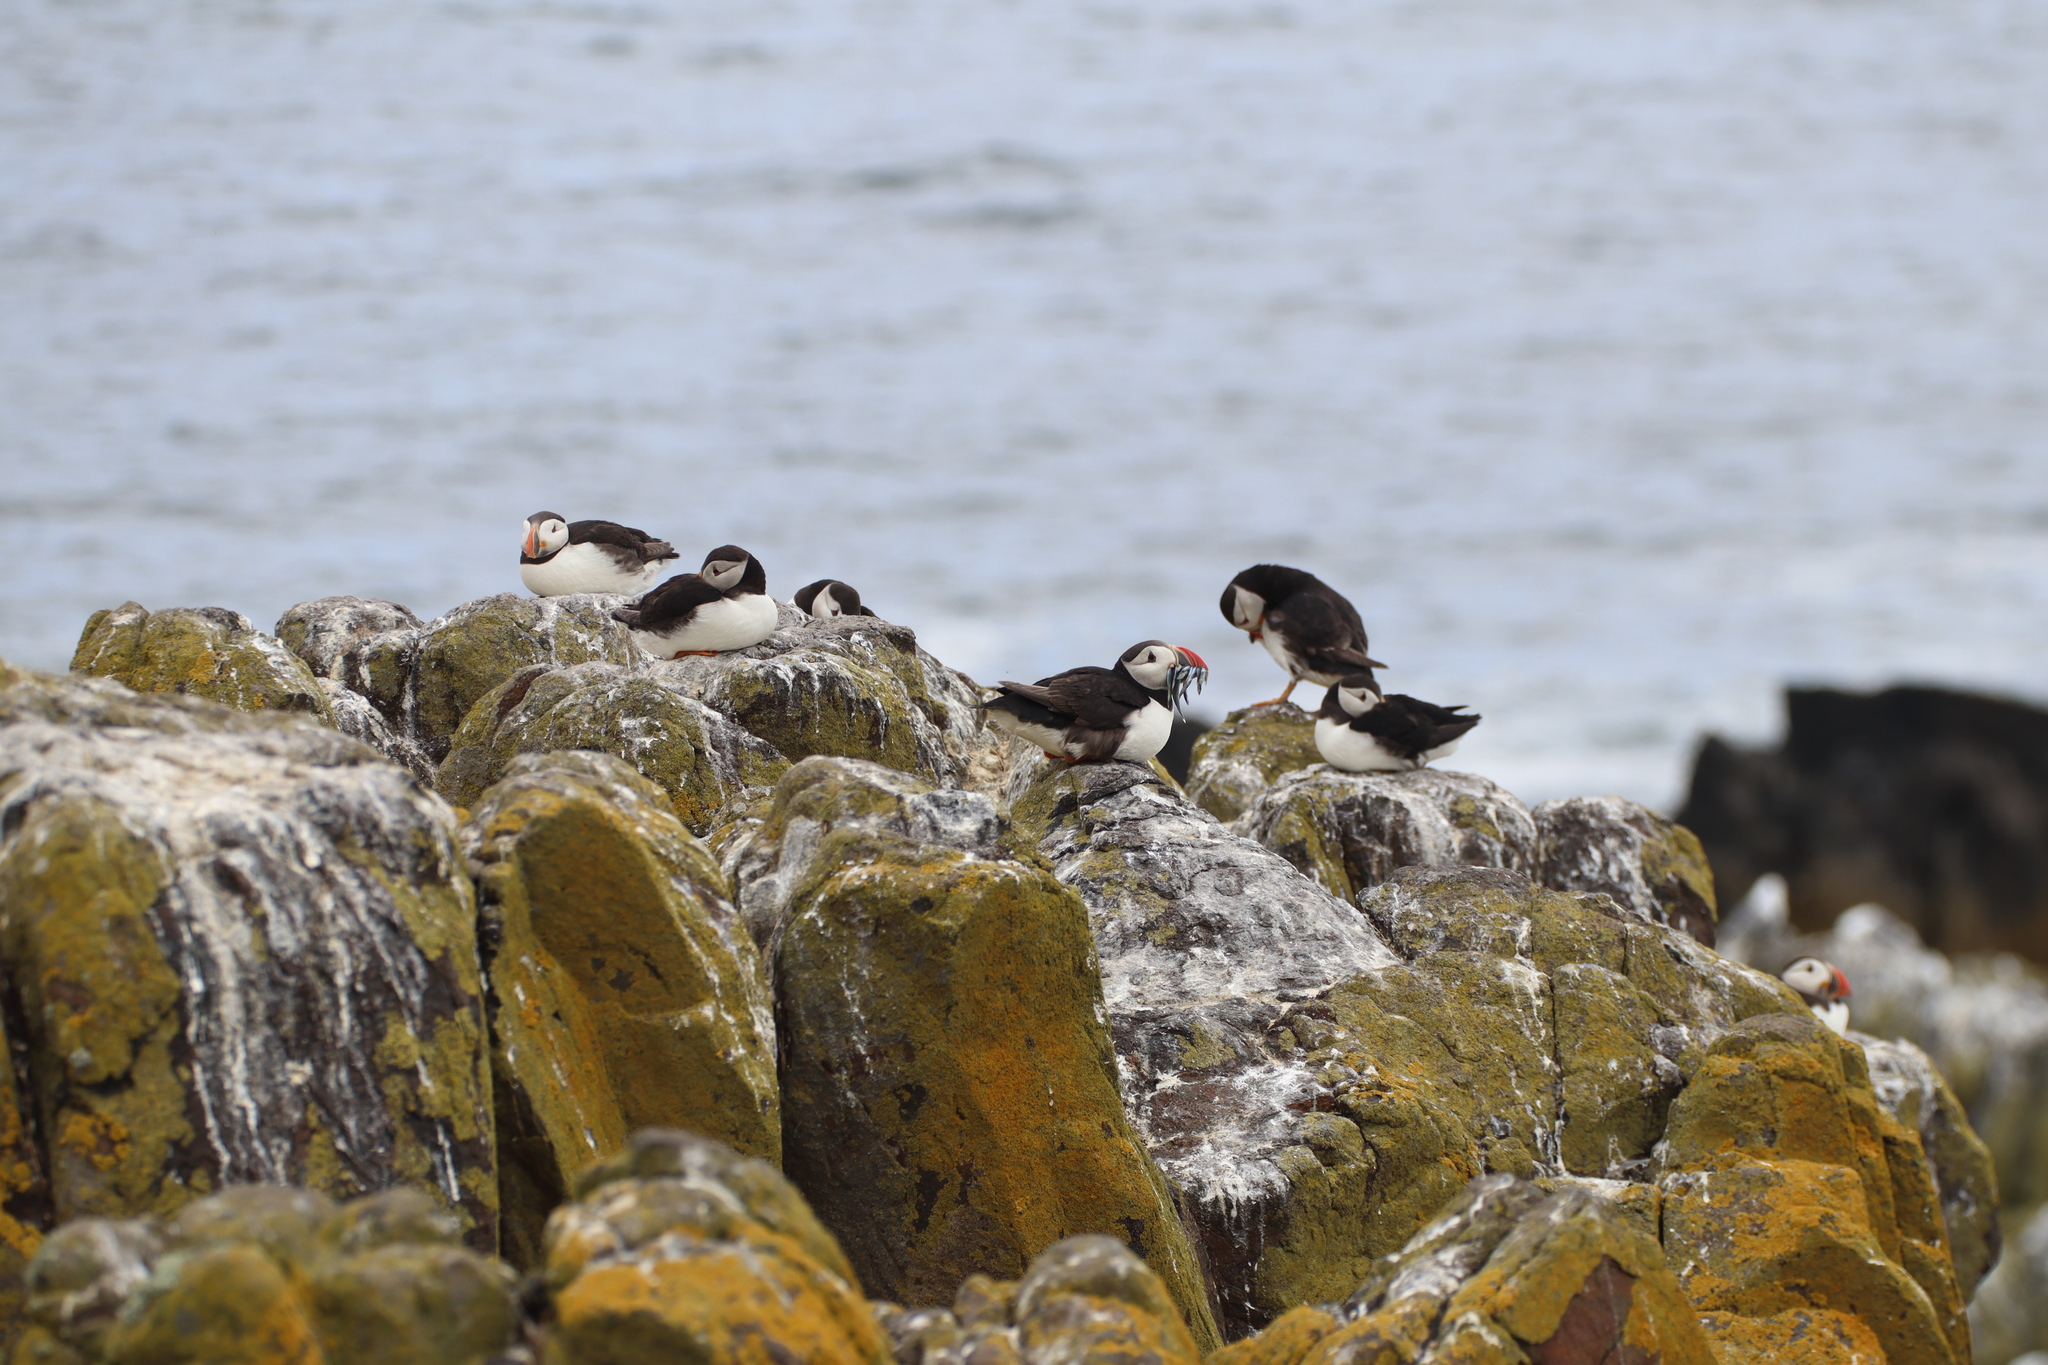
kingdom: Animalia
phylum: Chordata
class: Aves
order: Charadriiformes
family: Alcidae
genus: Fratercula
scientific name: Fratercula arctica
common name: Atlantic puffin
